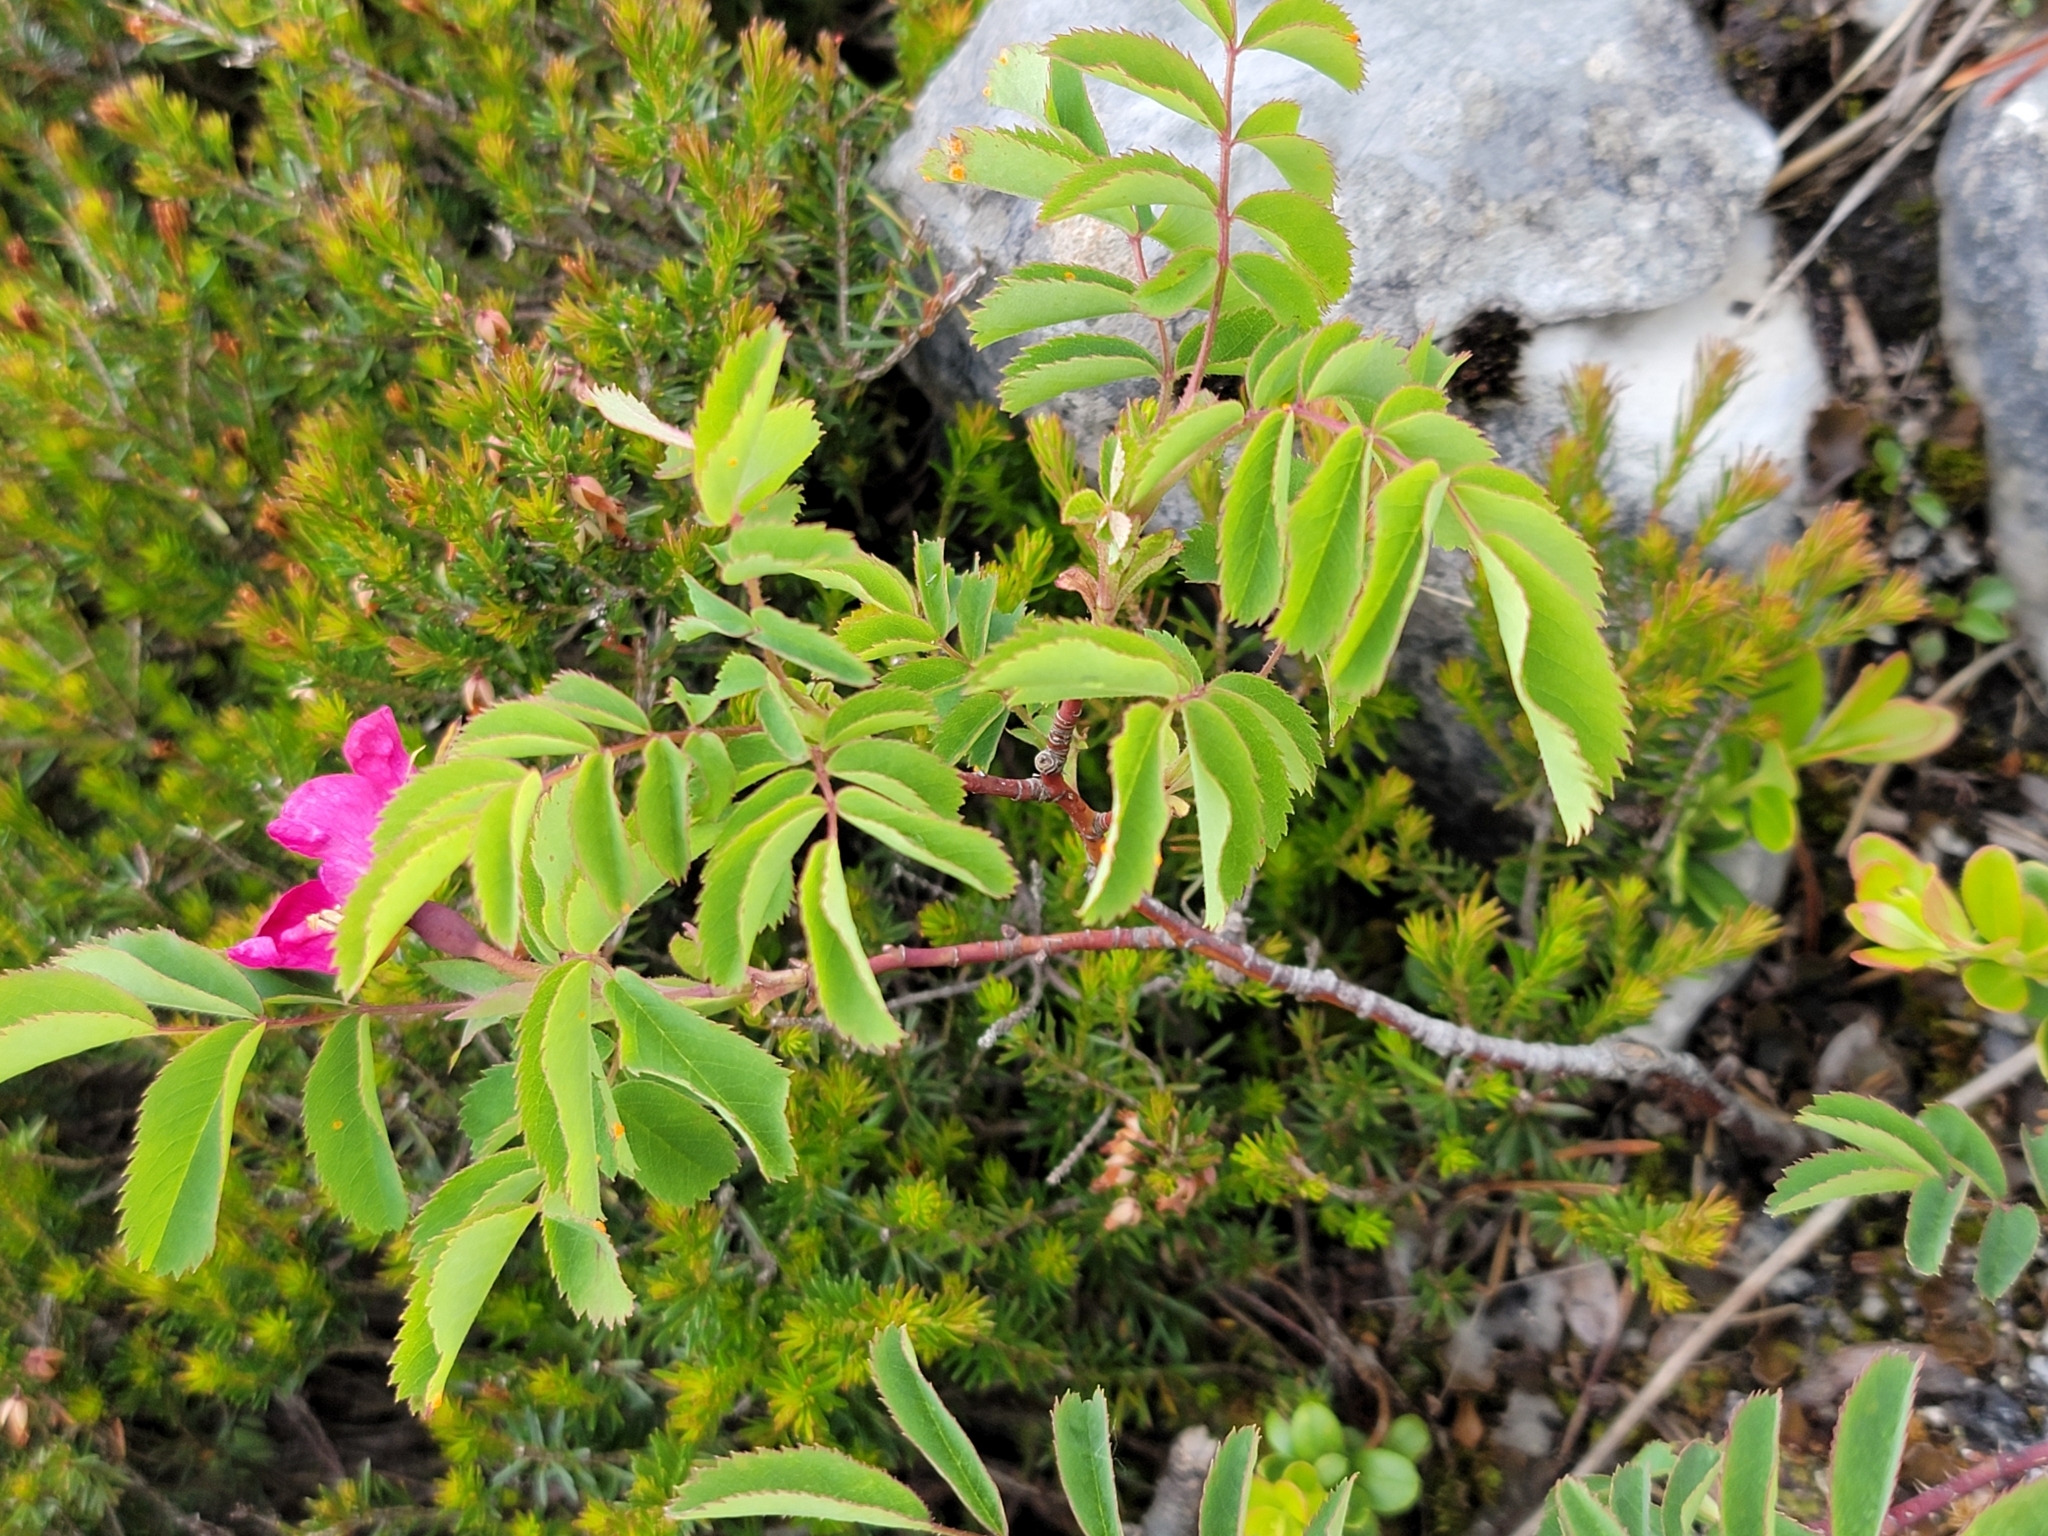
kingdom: Plantae
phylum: Tracheophyta
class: Magnoliopsida
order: Rosales
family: Rosaceae
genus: Rosa
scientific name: Rosa pendulina
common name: Alpine rose
